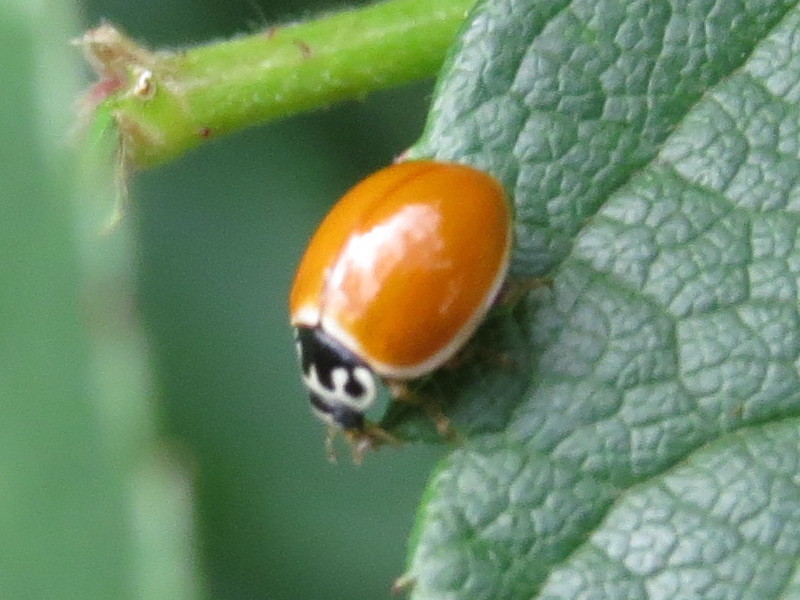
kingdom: Animalia
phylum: Arthropoda
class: Insecta
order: Coleoptera
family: Coccinellidae
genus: Cycloneda
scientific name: Cycloneda munda
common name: Polished lady beetle
